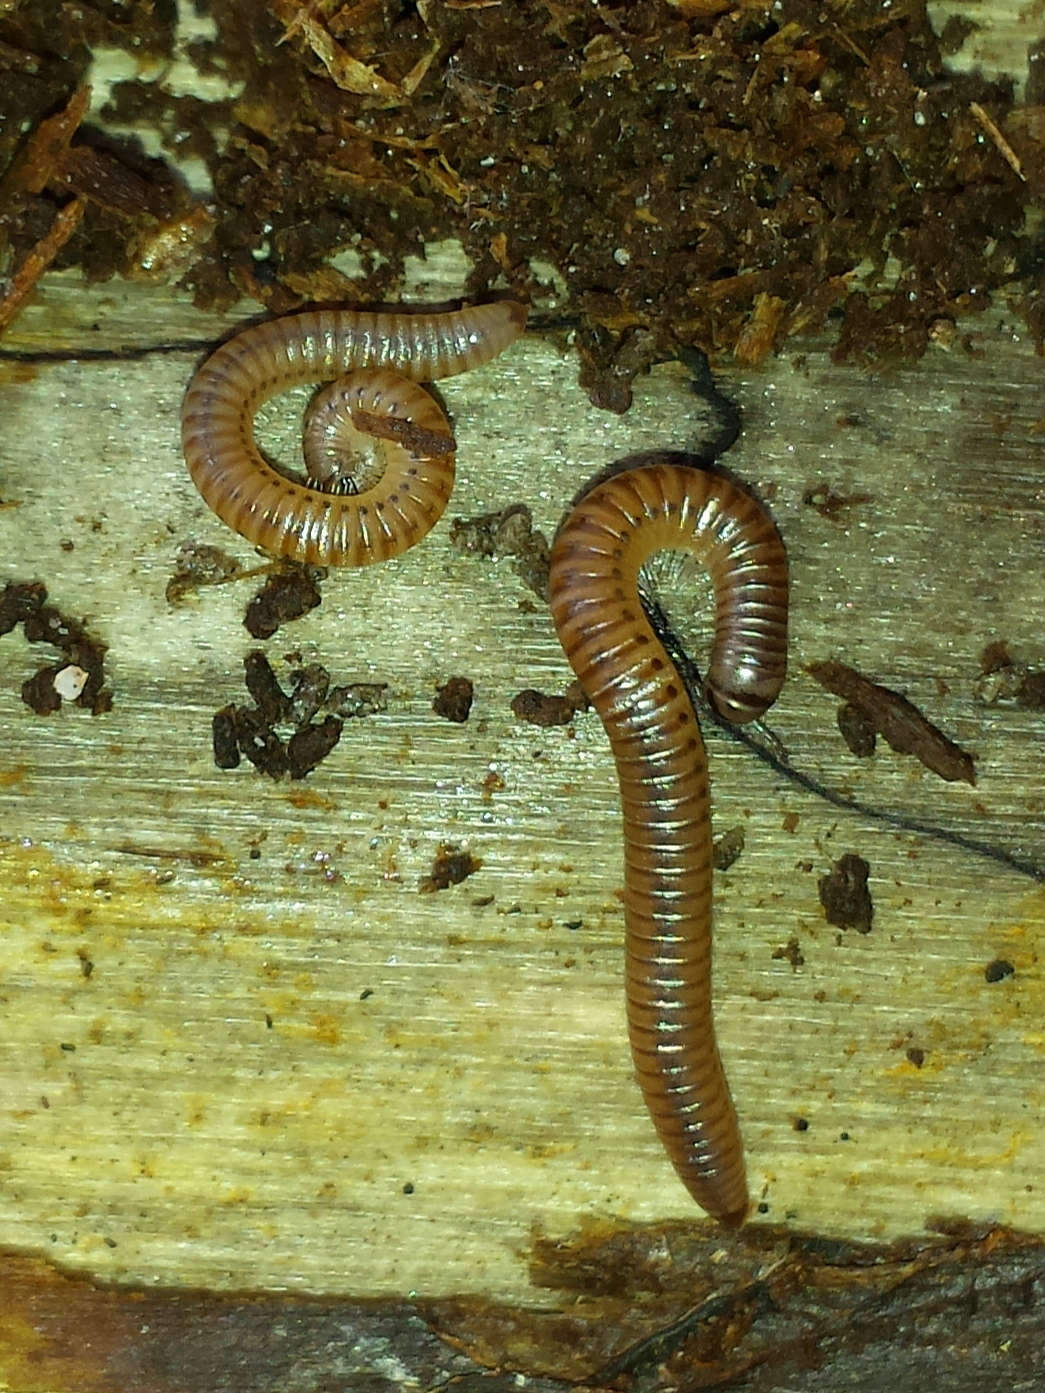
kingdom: Animalia
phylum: Arthropoda
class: Diplopoda
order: Julida
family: Julidae
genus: Cylindroiulus
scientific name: Cylindroiulus punctatus
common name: Blunt-tailed millipede
